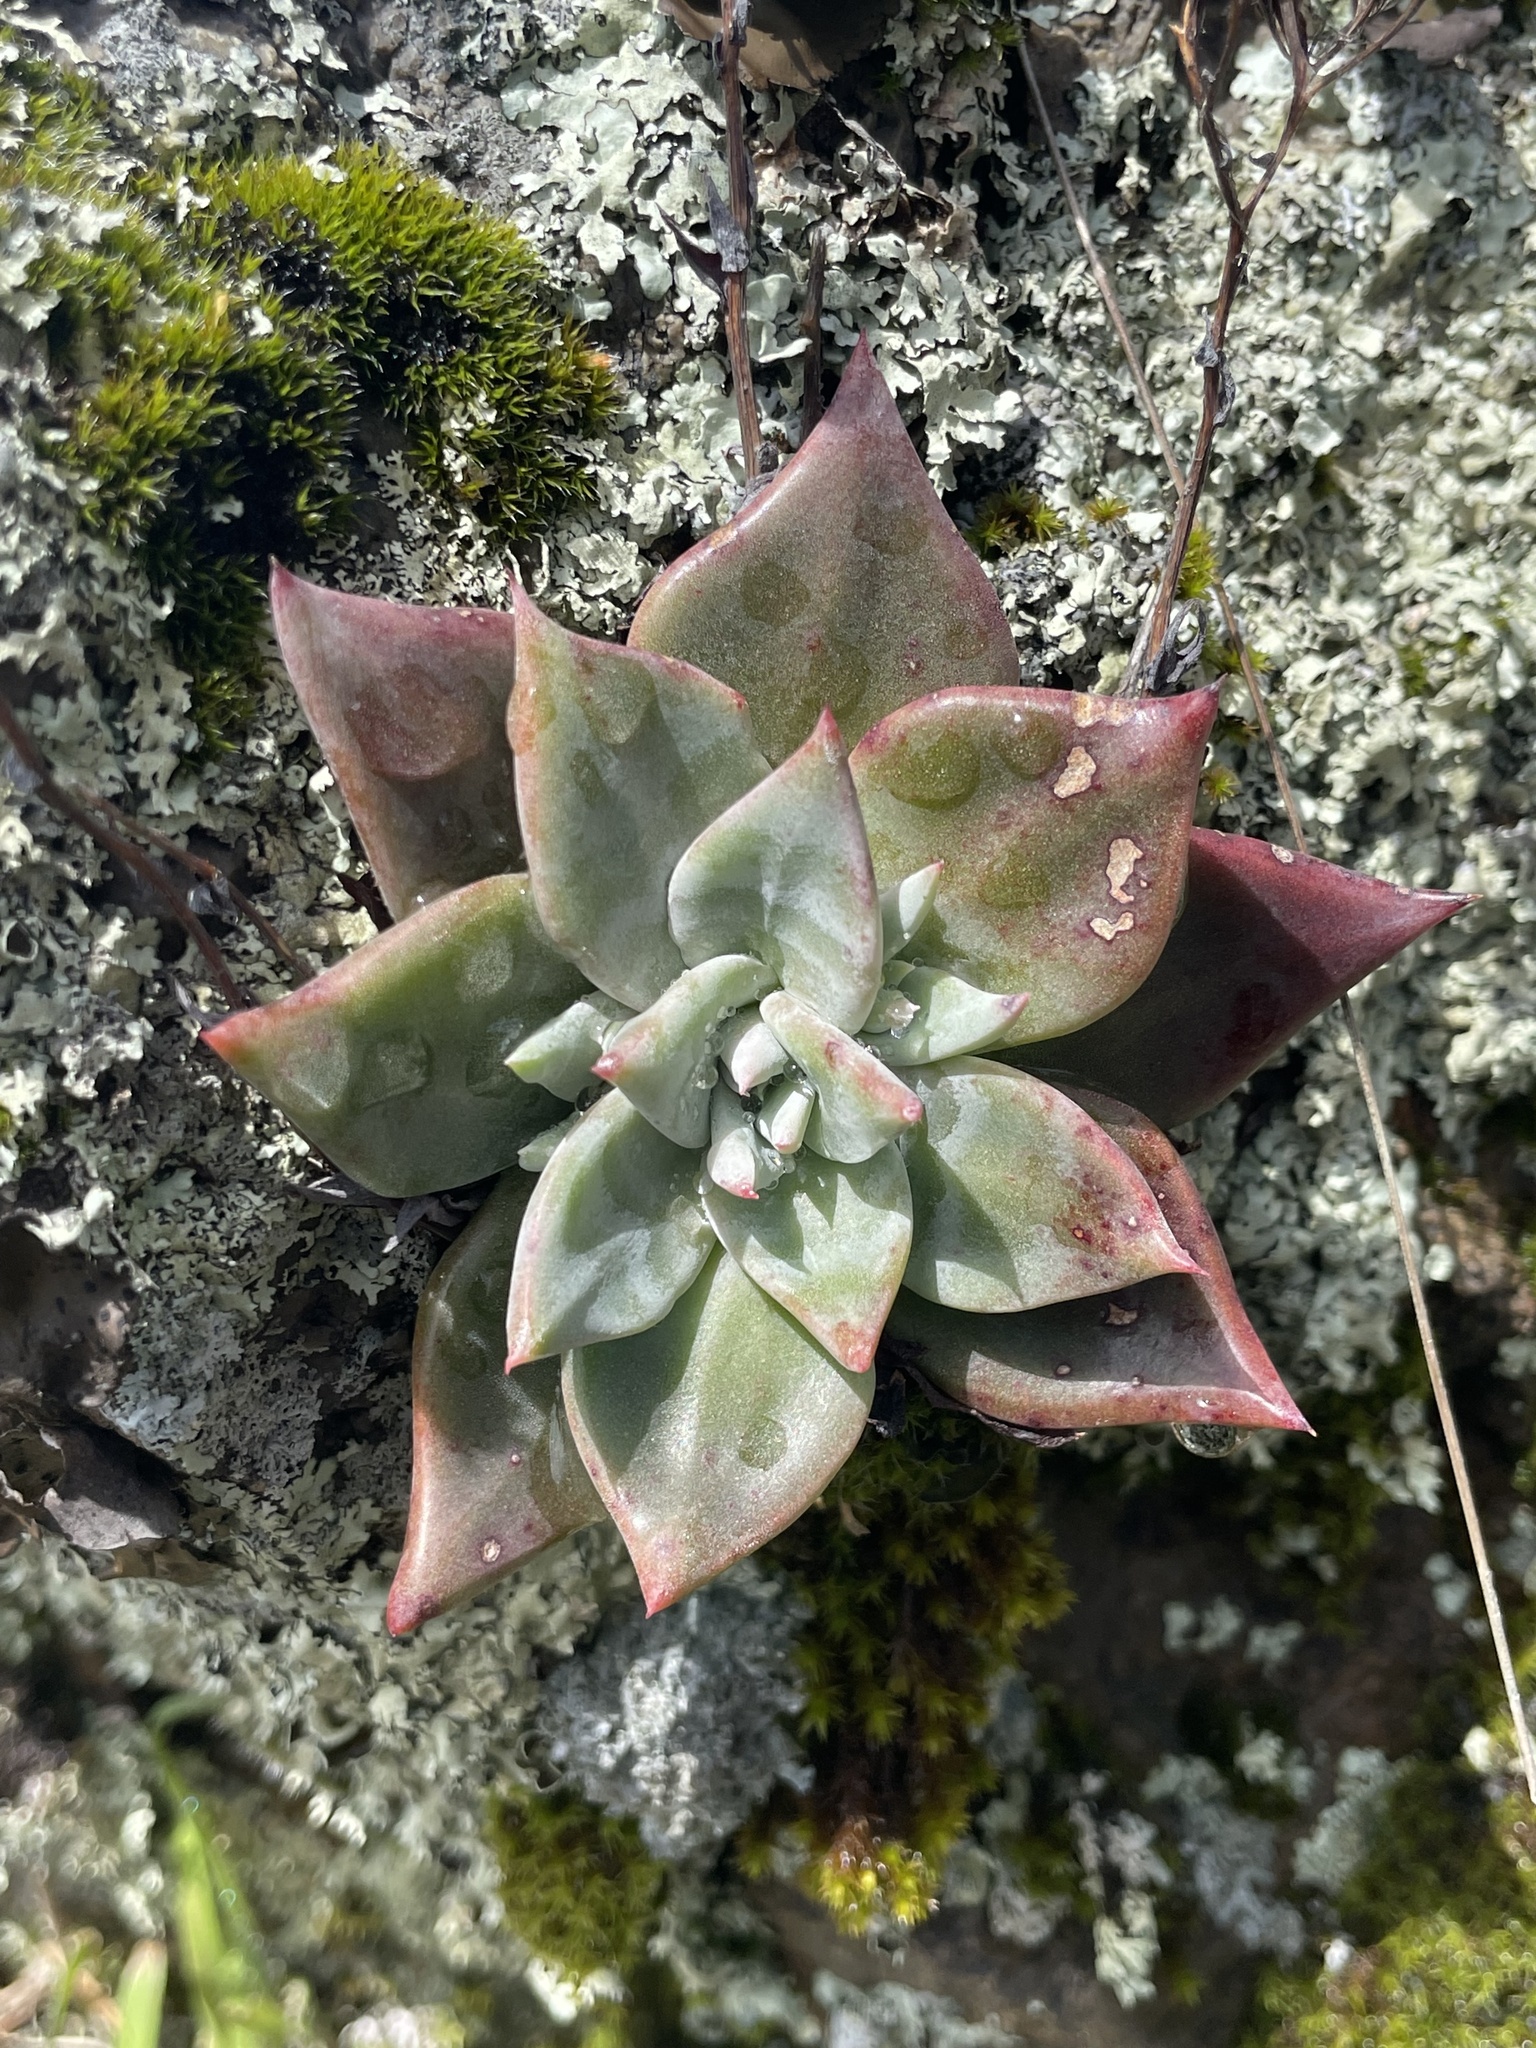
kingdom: Plantae
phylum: Tracheophyta
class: Magnoliopsida
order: Saxifragales
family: Crassulaceae
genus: Dudleya
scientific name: Dudleya cymosa
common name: Canyon dudleya
